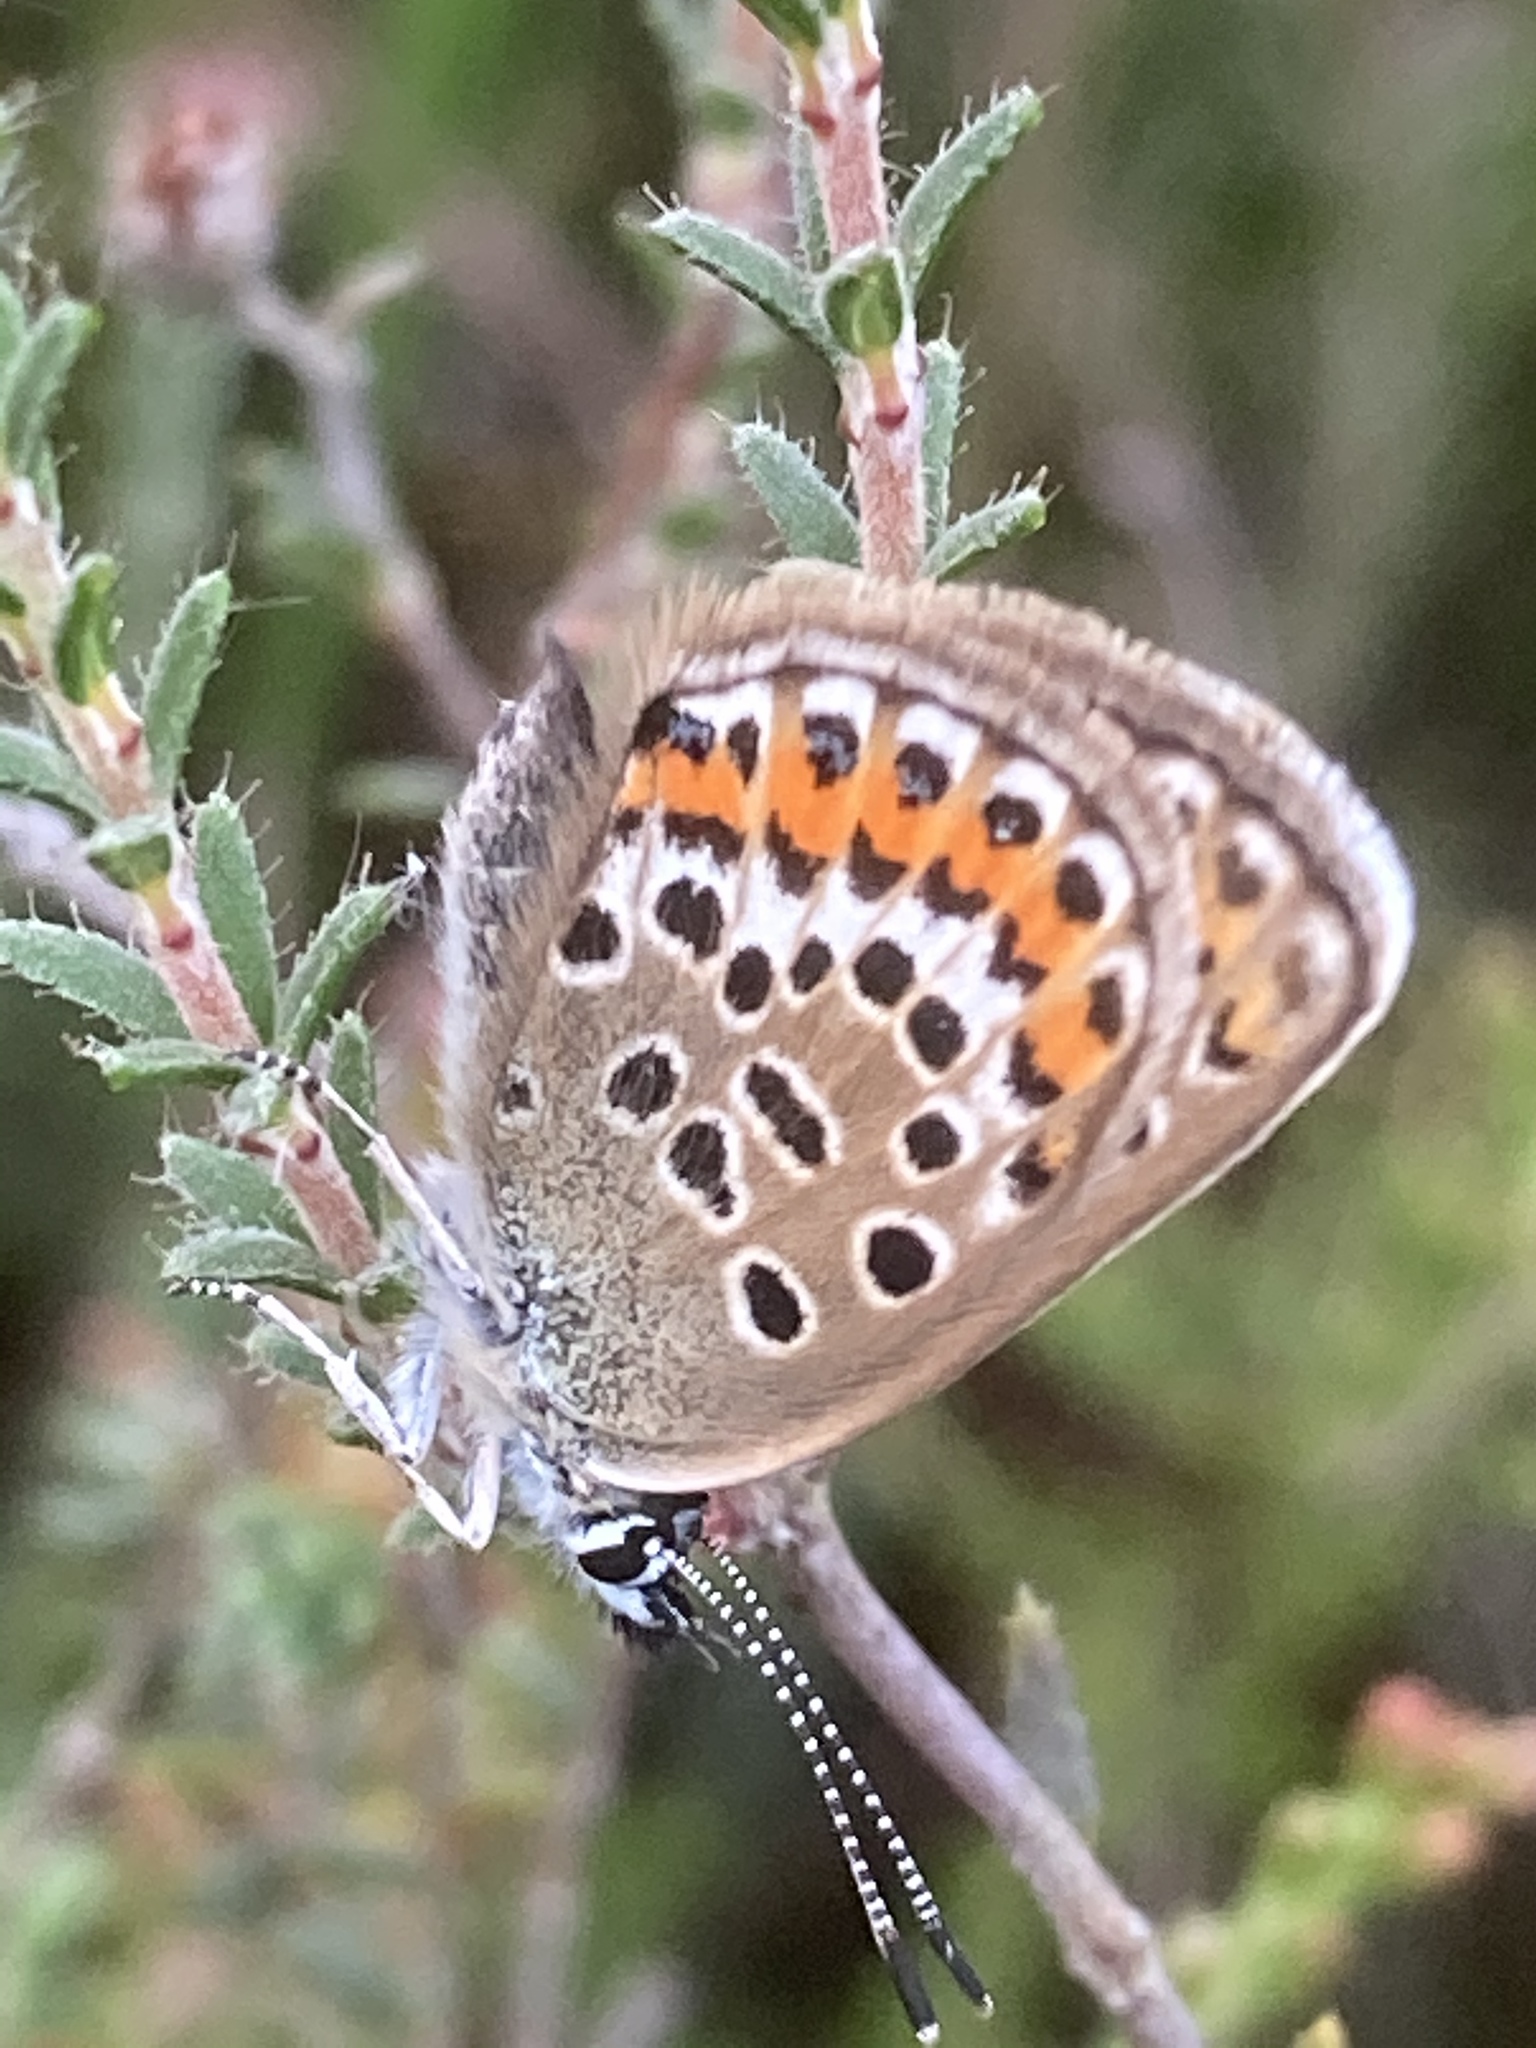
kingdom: Animalia
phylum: Arthropoda
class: Insecta
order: Lepidoptera
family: Lycaenidae
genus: Plebejus
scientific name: Plebejus argus
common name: Silver-studded blue
